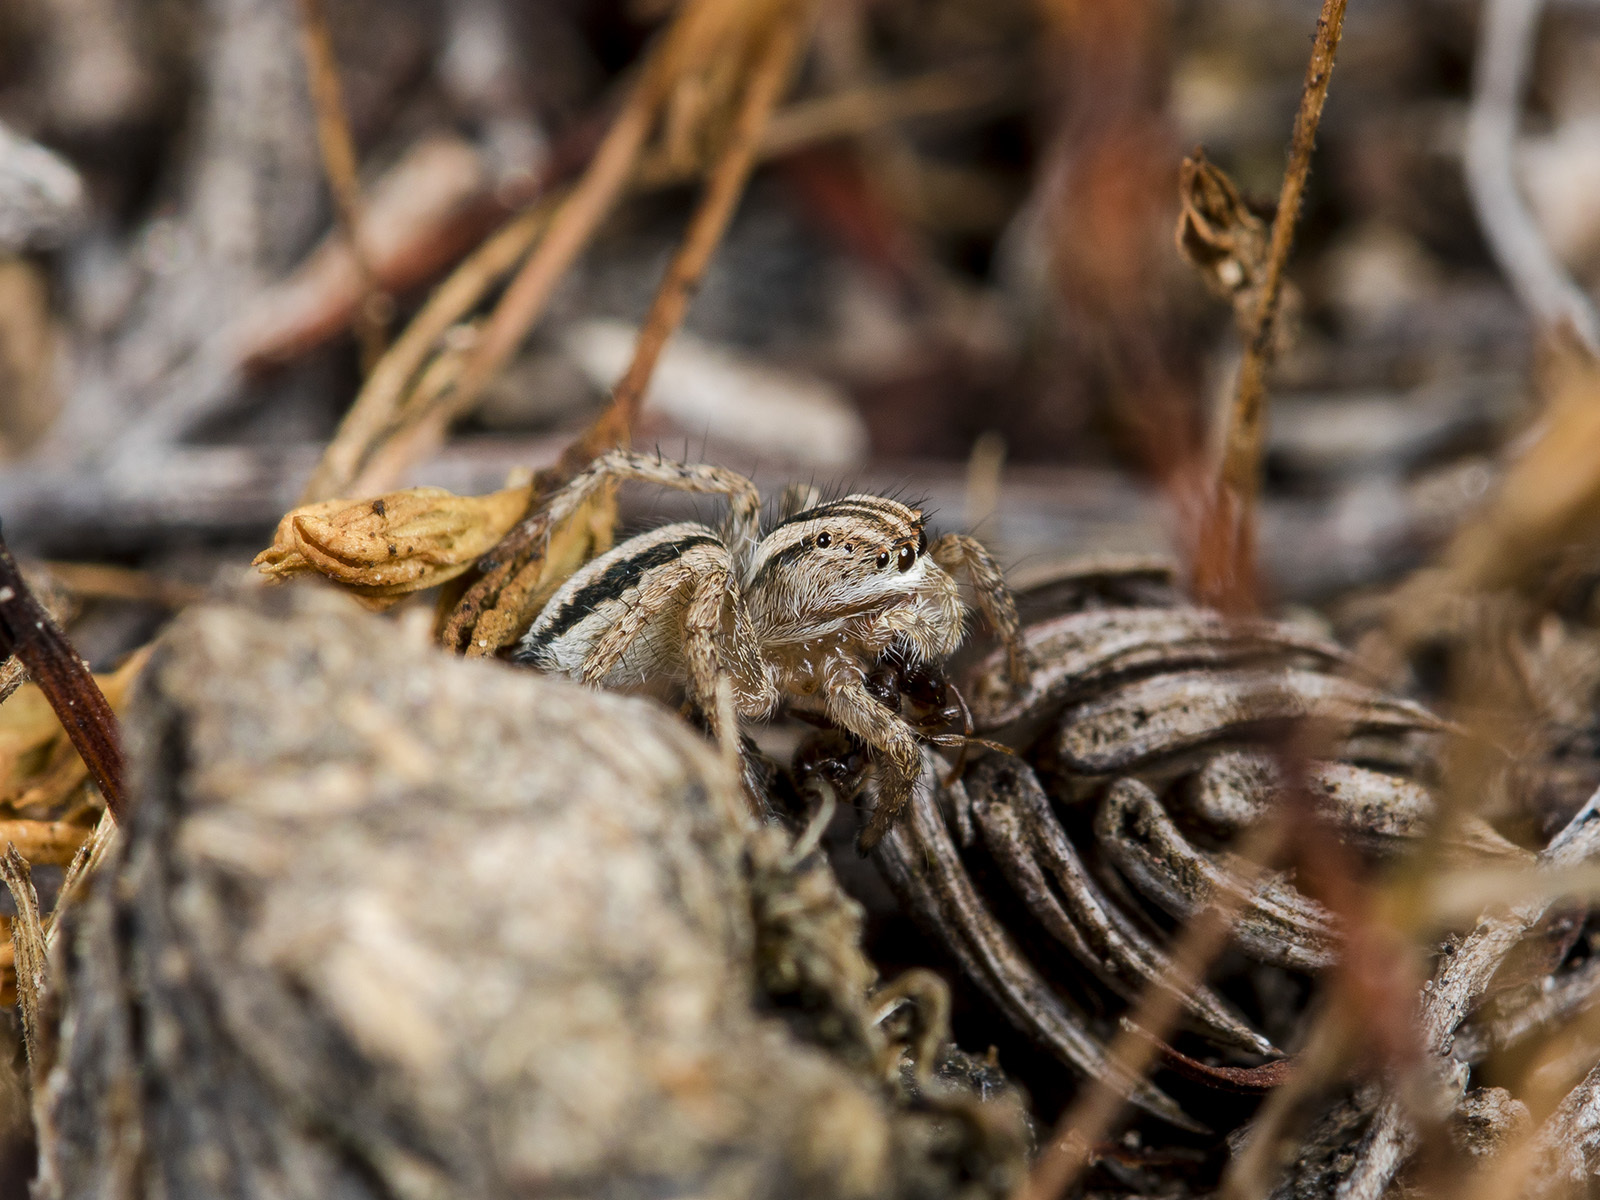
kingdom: Animalia
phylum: Arthropoda
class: Arachnida
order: Araneae
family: Salticidae
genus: Aelurillus
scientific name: Aelurillus m-nigrum
